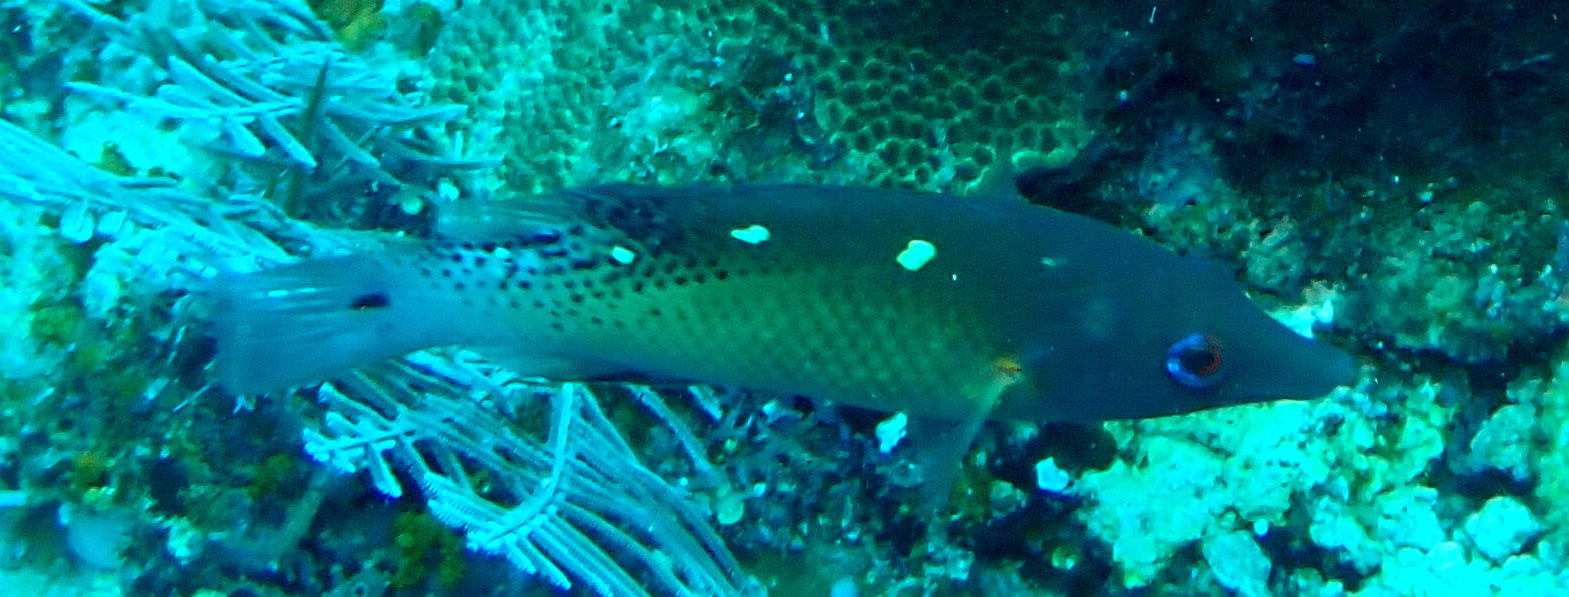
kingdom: Animalia
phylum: Chordata
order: Perciformes
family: Labridae
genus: Bodianus
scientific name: Bodianus dictynna
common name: Diana's hogfish
